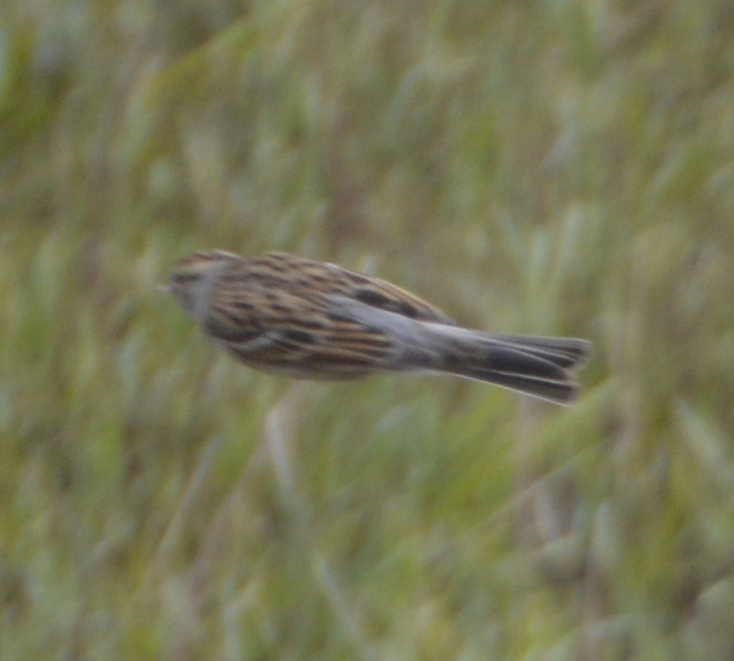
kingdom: Animalia
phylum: Chordata
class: Aves
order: Passeriformes
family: Passerellidae
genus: Spizella
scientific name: Spizella passerina
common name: Chipping sparrow
